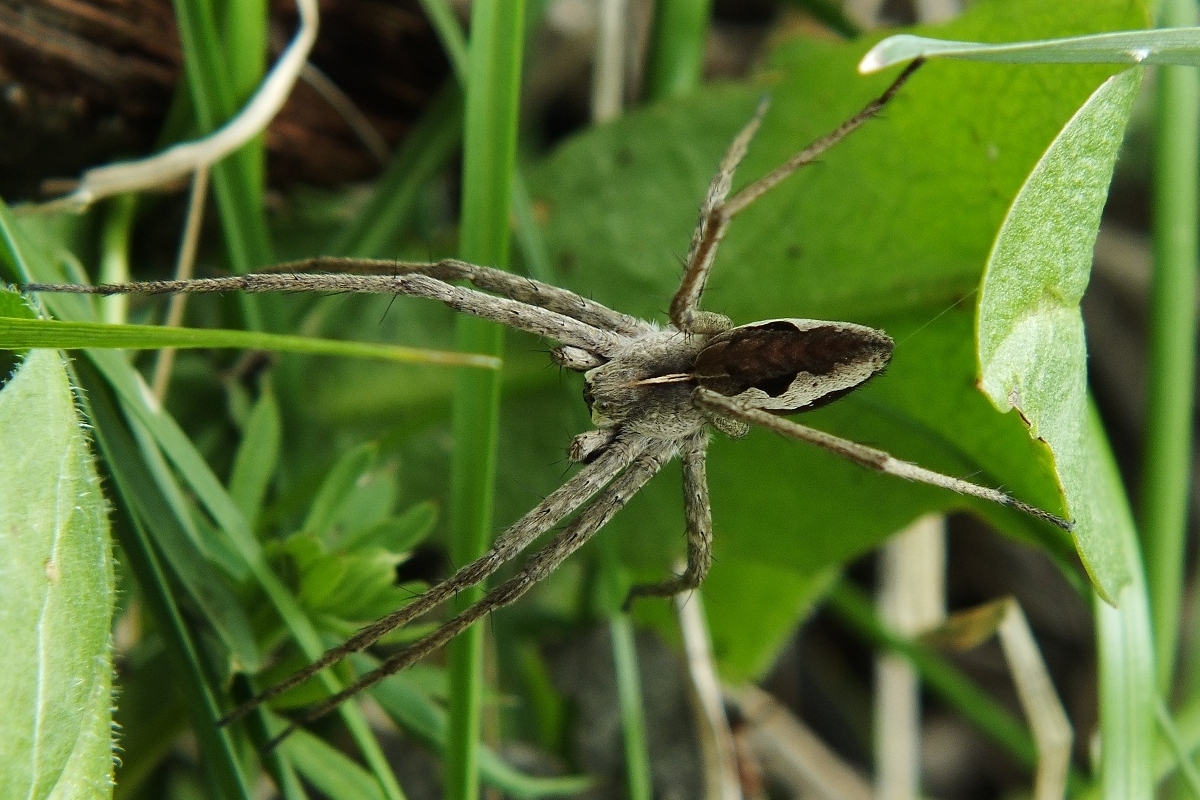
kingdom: Animalia
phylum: Arthropoda
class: Arachnida
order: Araneae
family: Pisauridae
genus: Pisaura
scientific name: Pisaura
